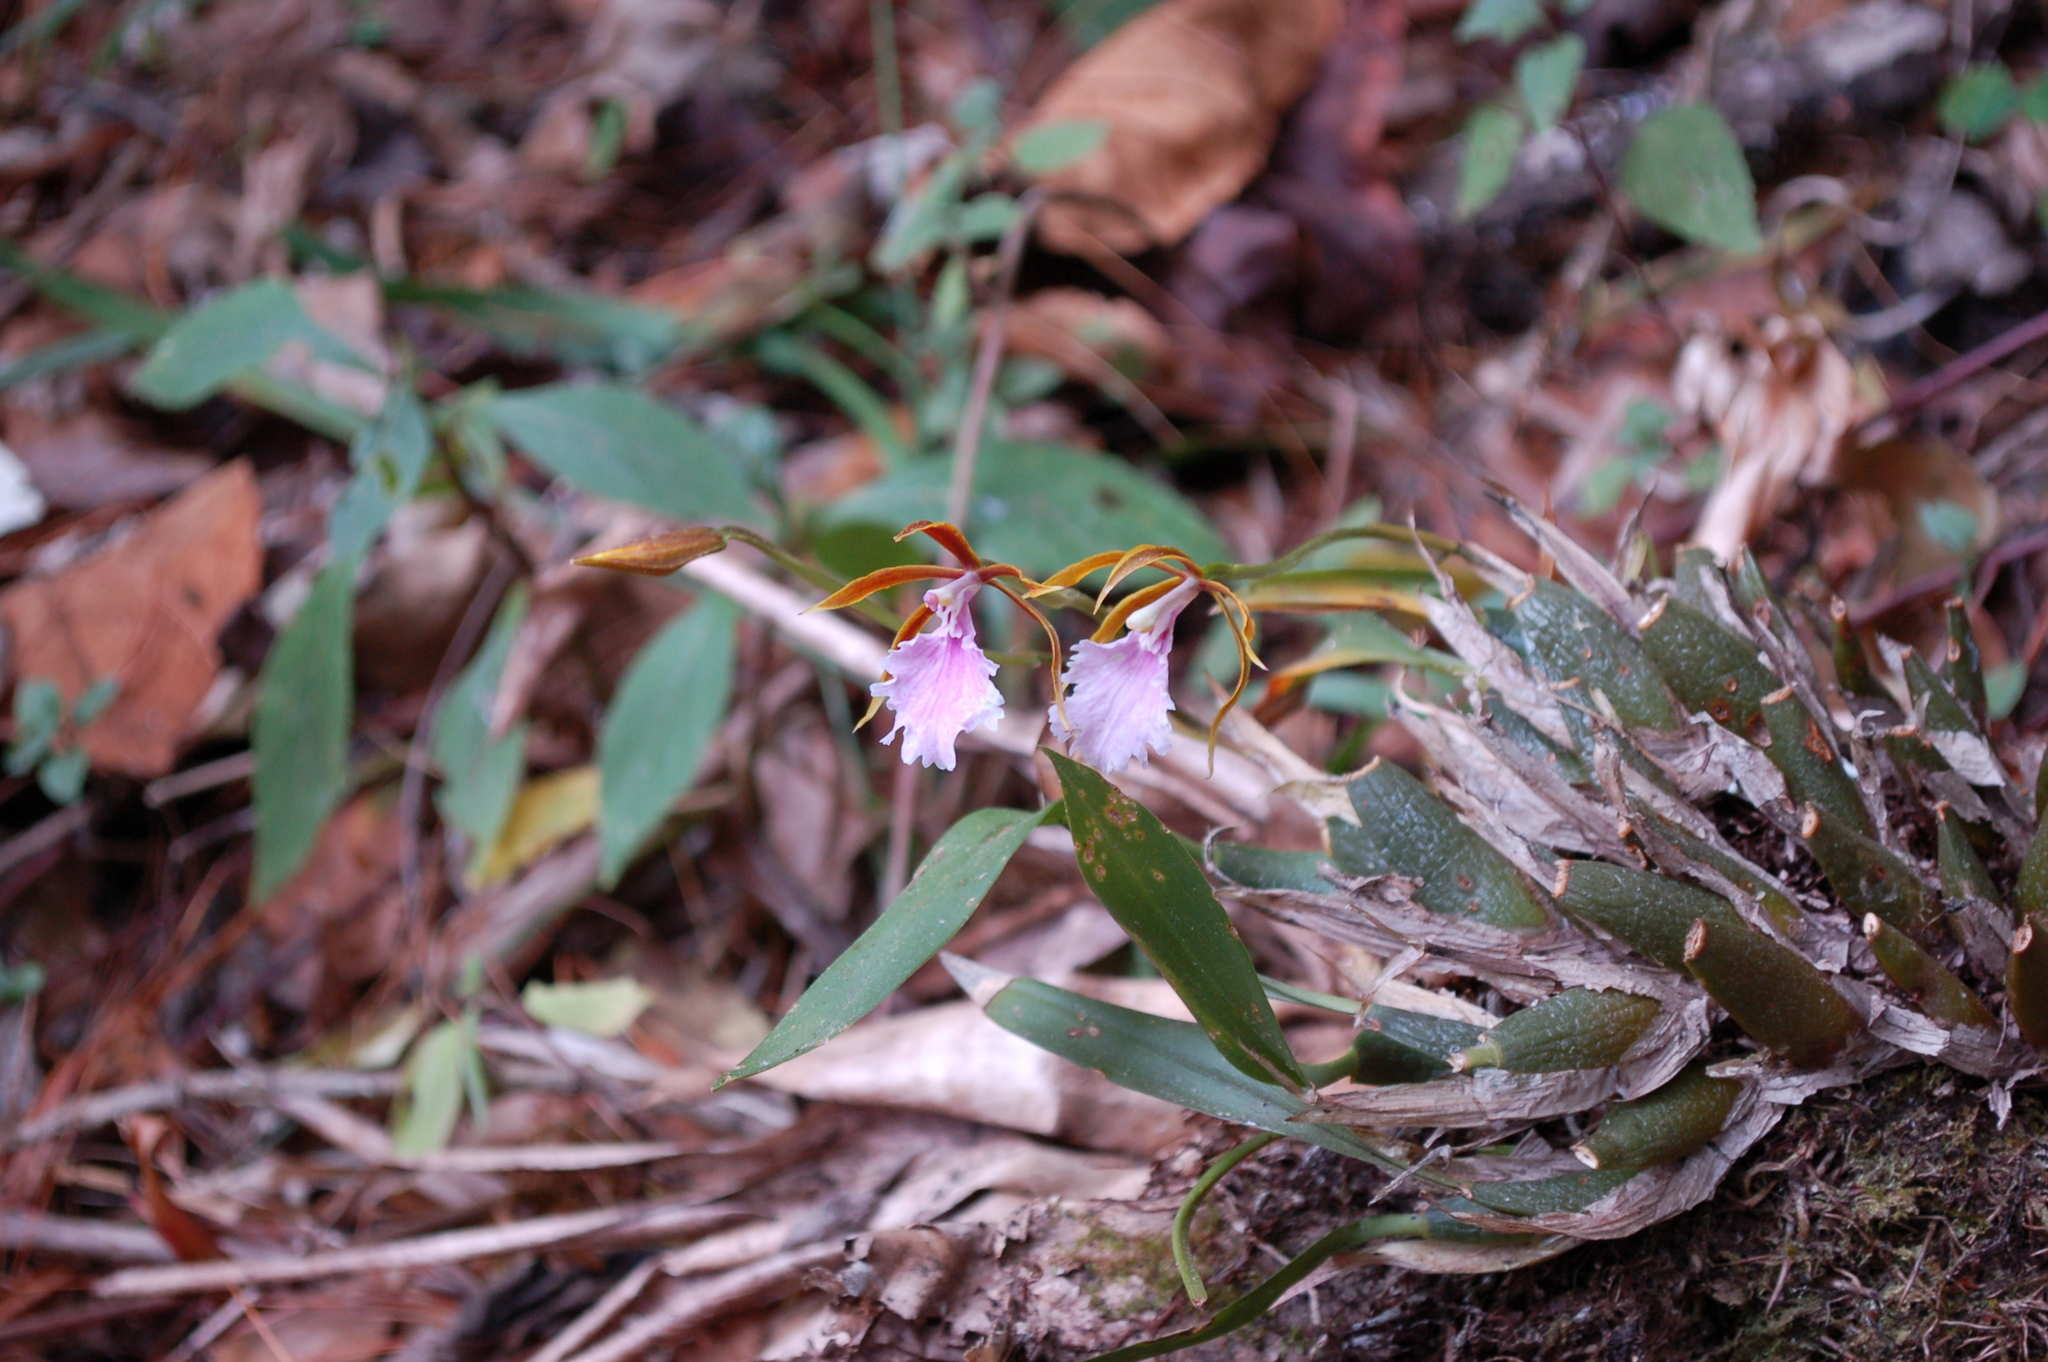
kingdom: Plantae
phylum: Tracheophyta
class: Liliopsida
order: Asparagales
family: Orchidaceae
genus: Rhynchostele
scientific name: Rhynchostele stellata
